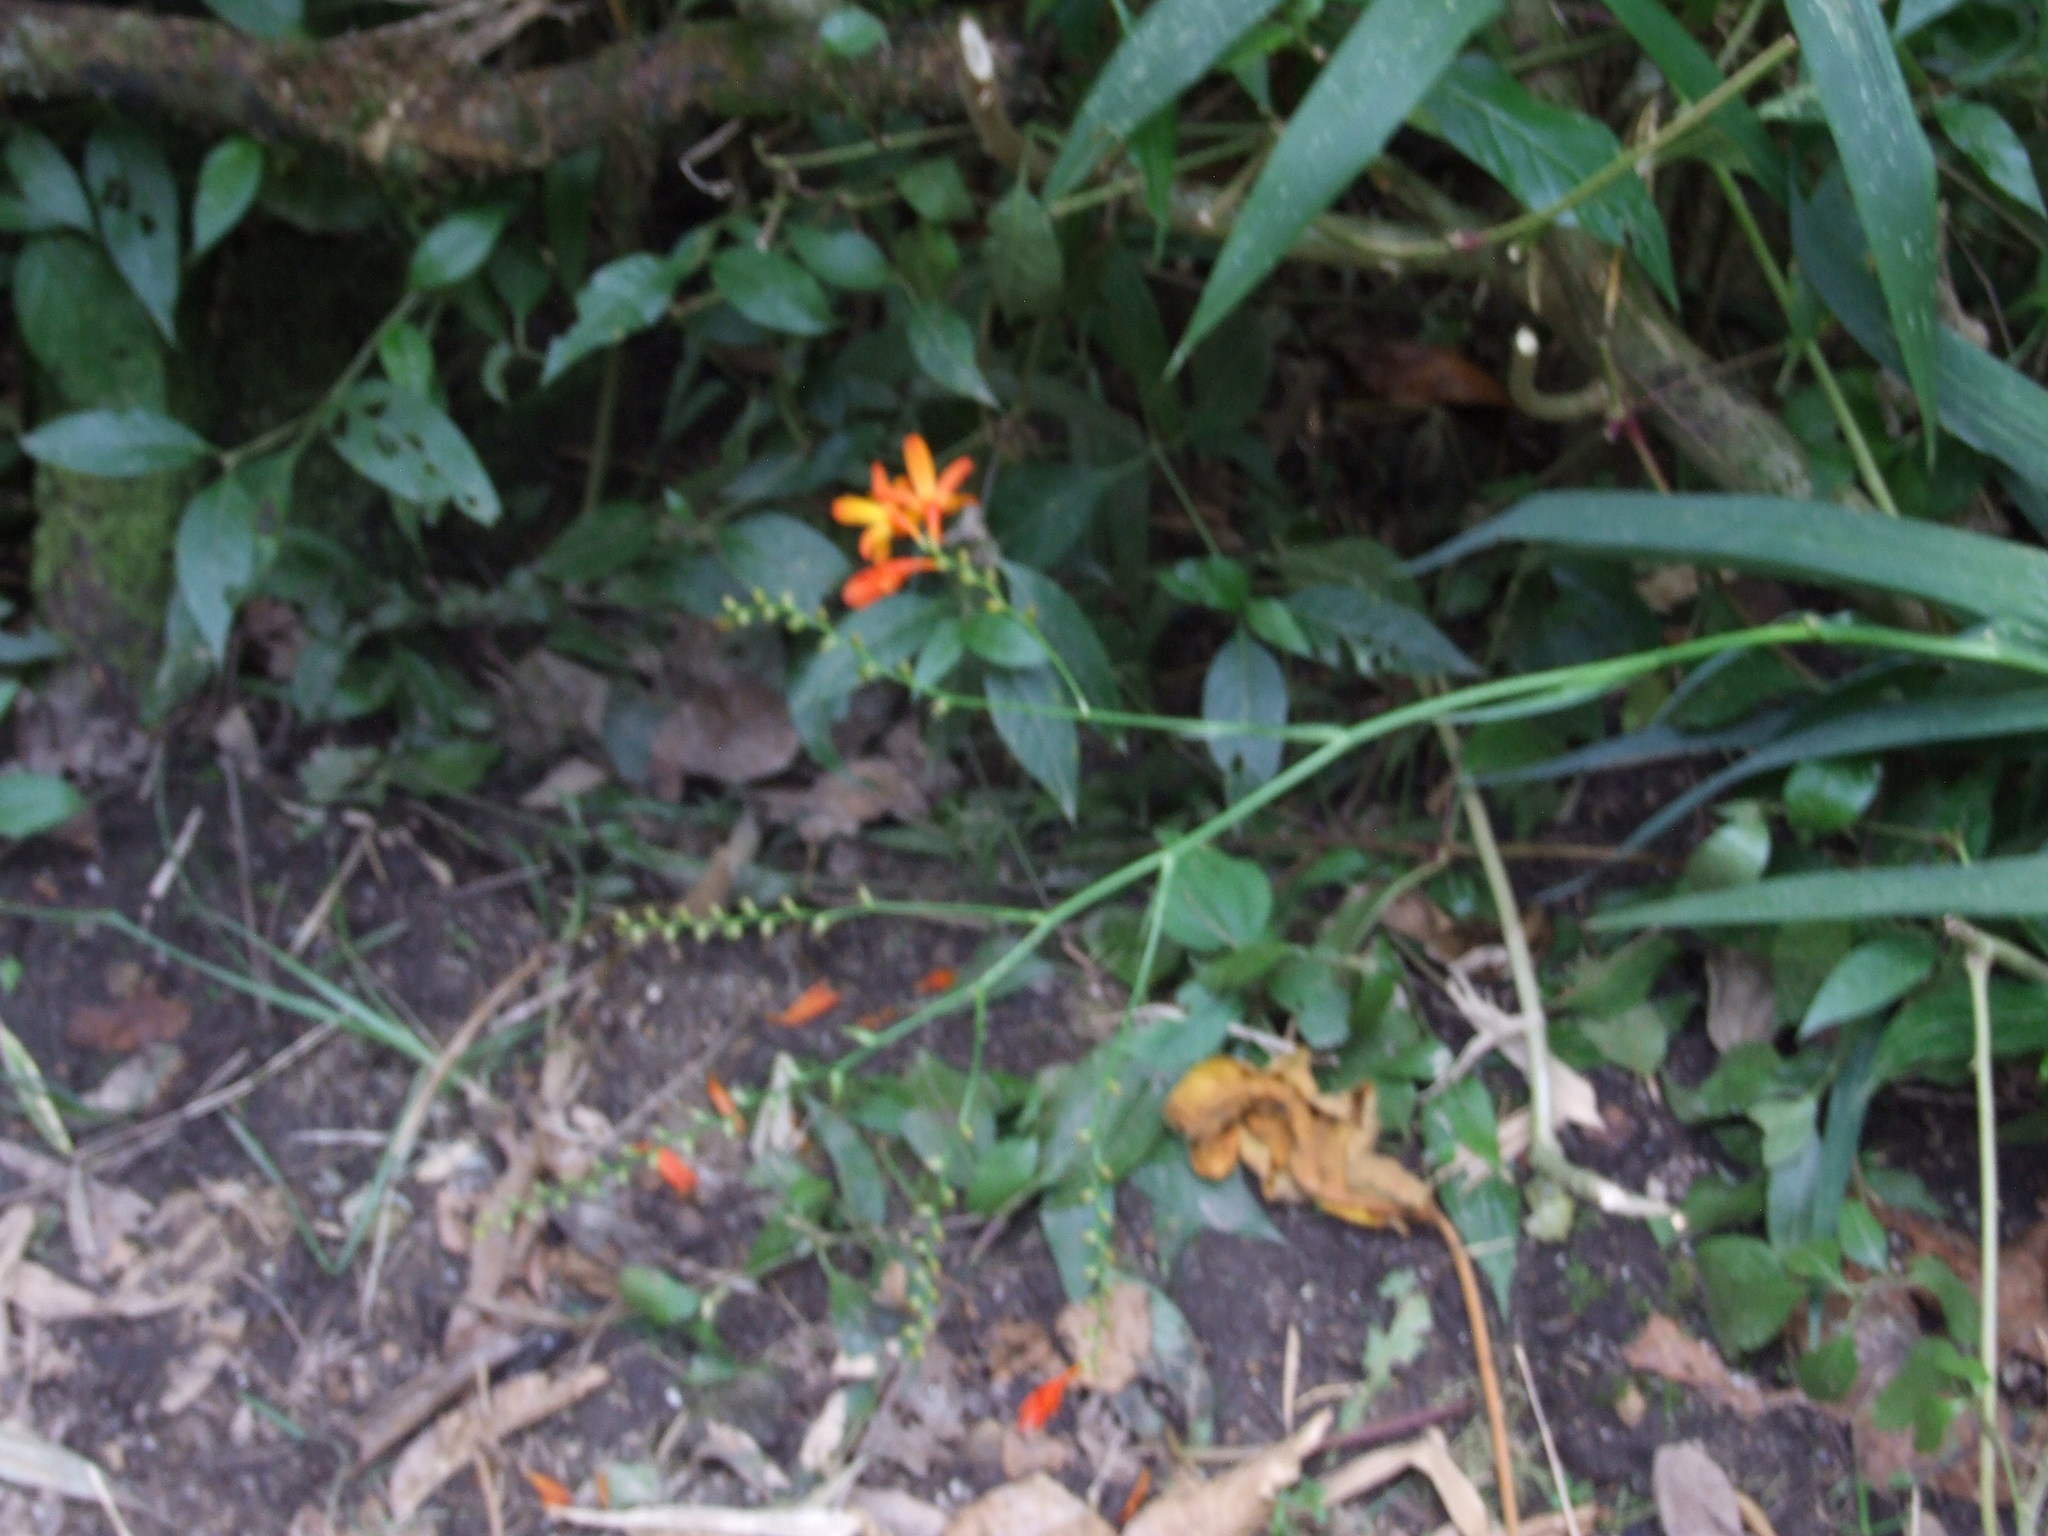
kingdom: Plantae
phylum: Tracheophyta
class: Liliopsida
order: Asparagales
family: Iridaceae
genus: Crocosmia
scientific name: Crocosmia crocosmiiflora
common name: Montbretia
